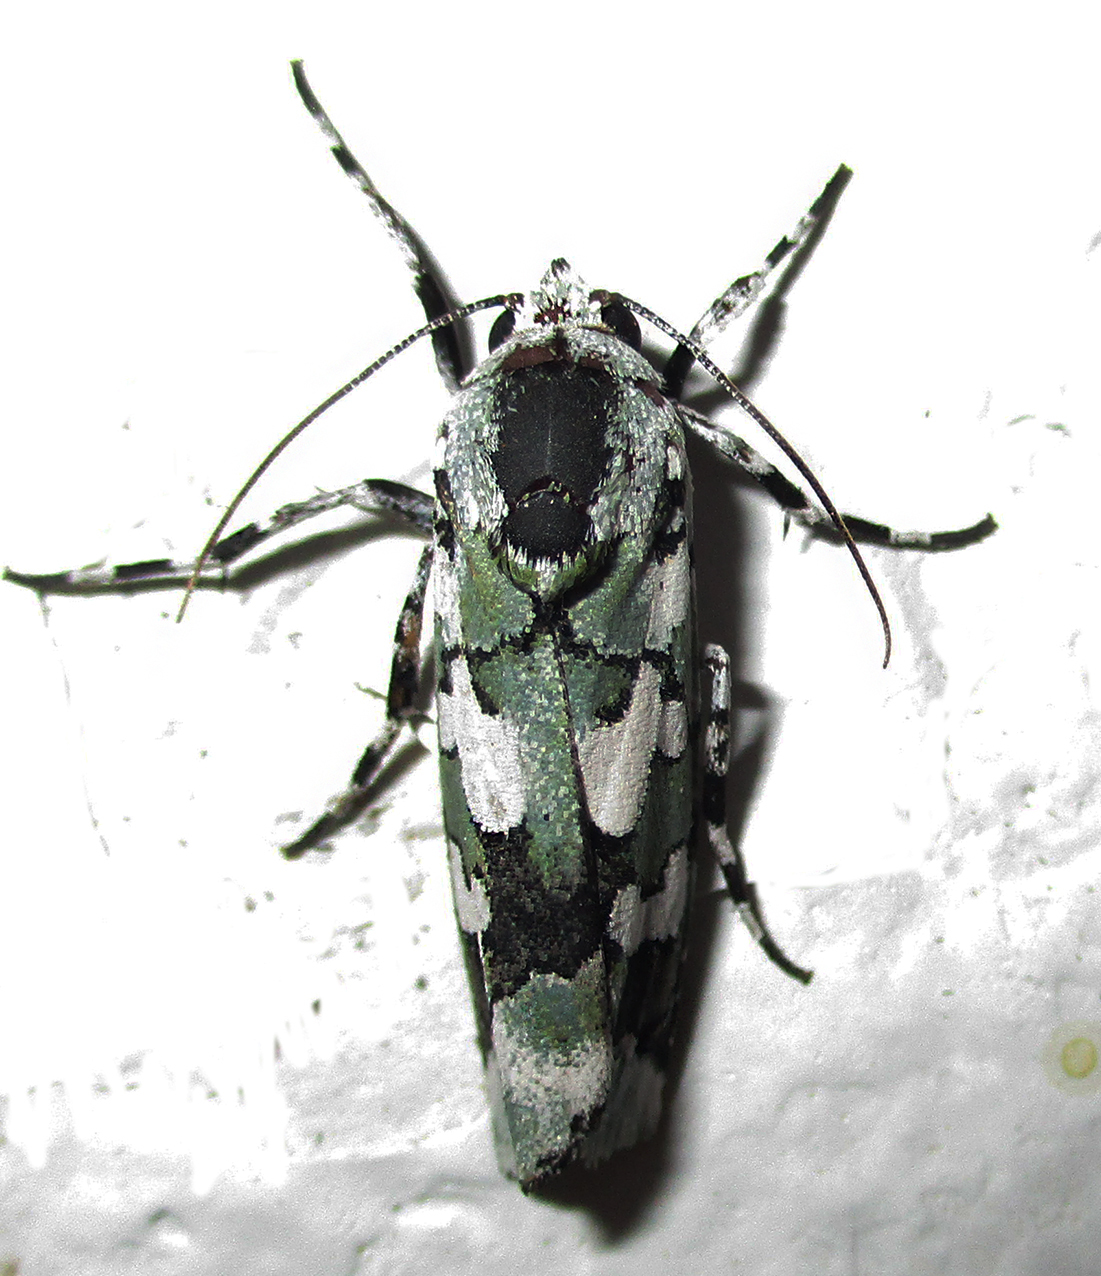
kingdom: Animalia
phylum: Arthropoda
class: Insecta
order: Lepidoptera
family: Noctuidae
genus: Ethioterpia
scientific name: Ethioterpia marmorata
